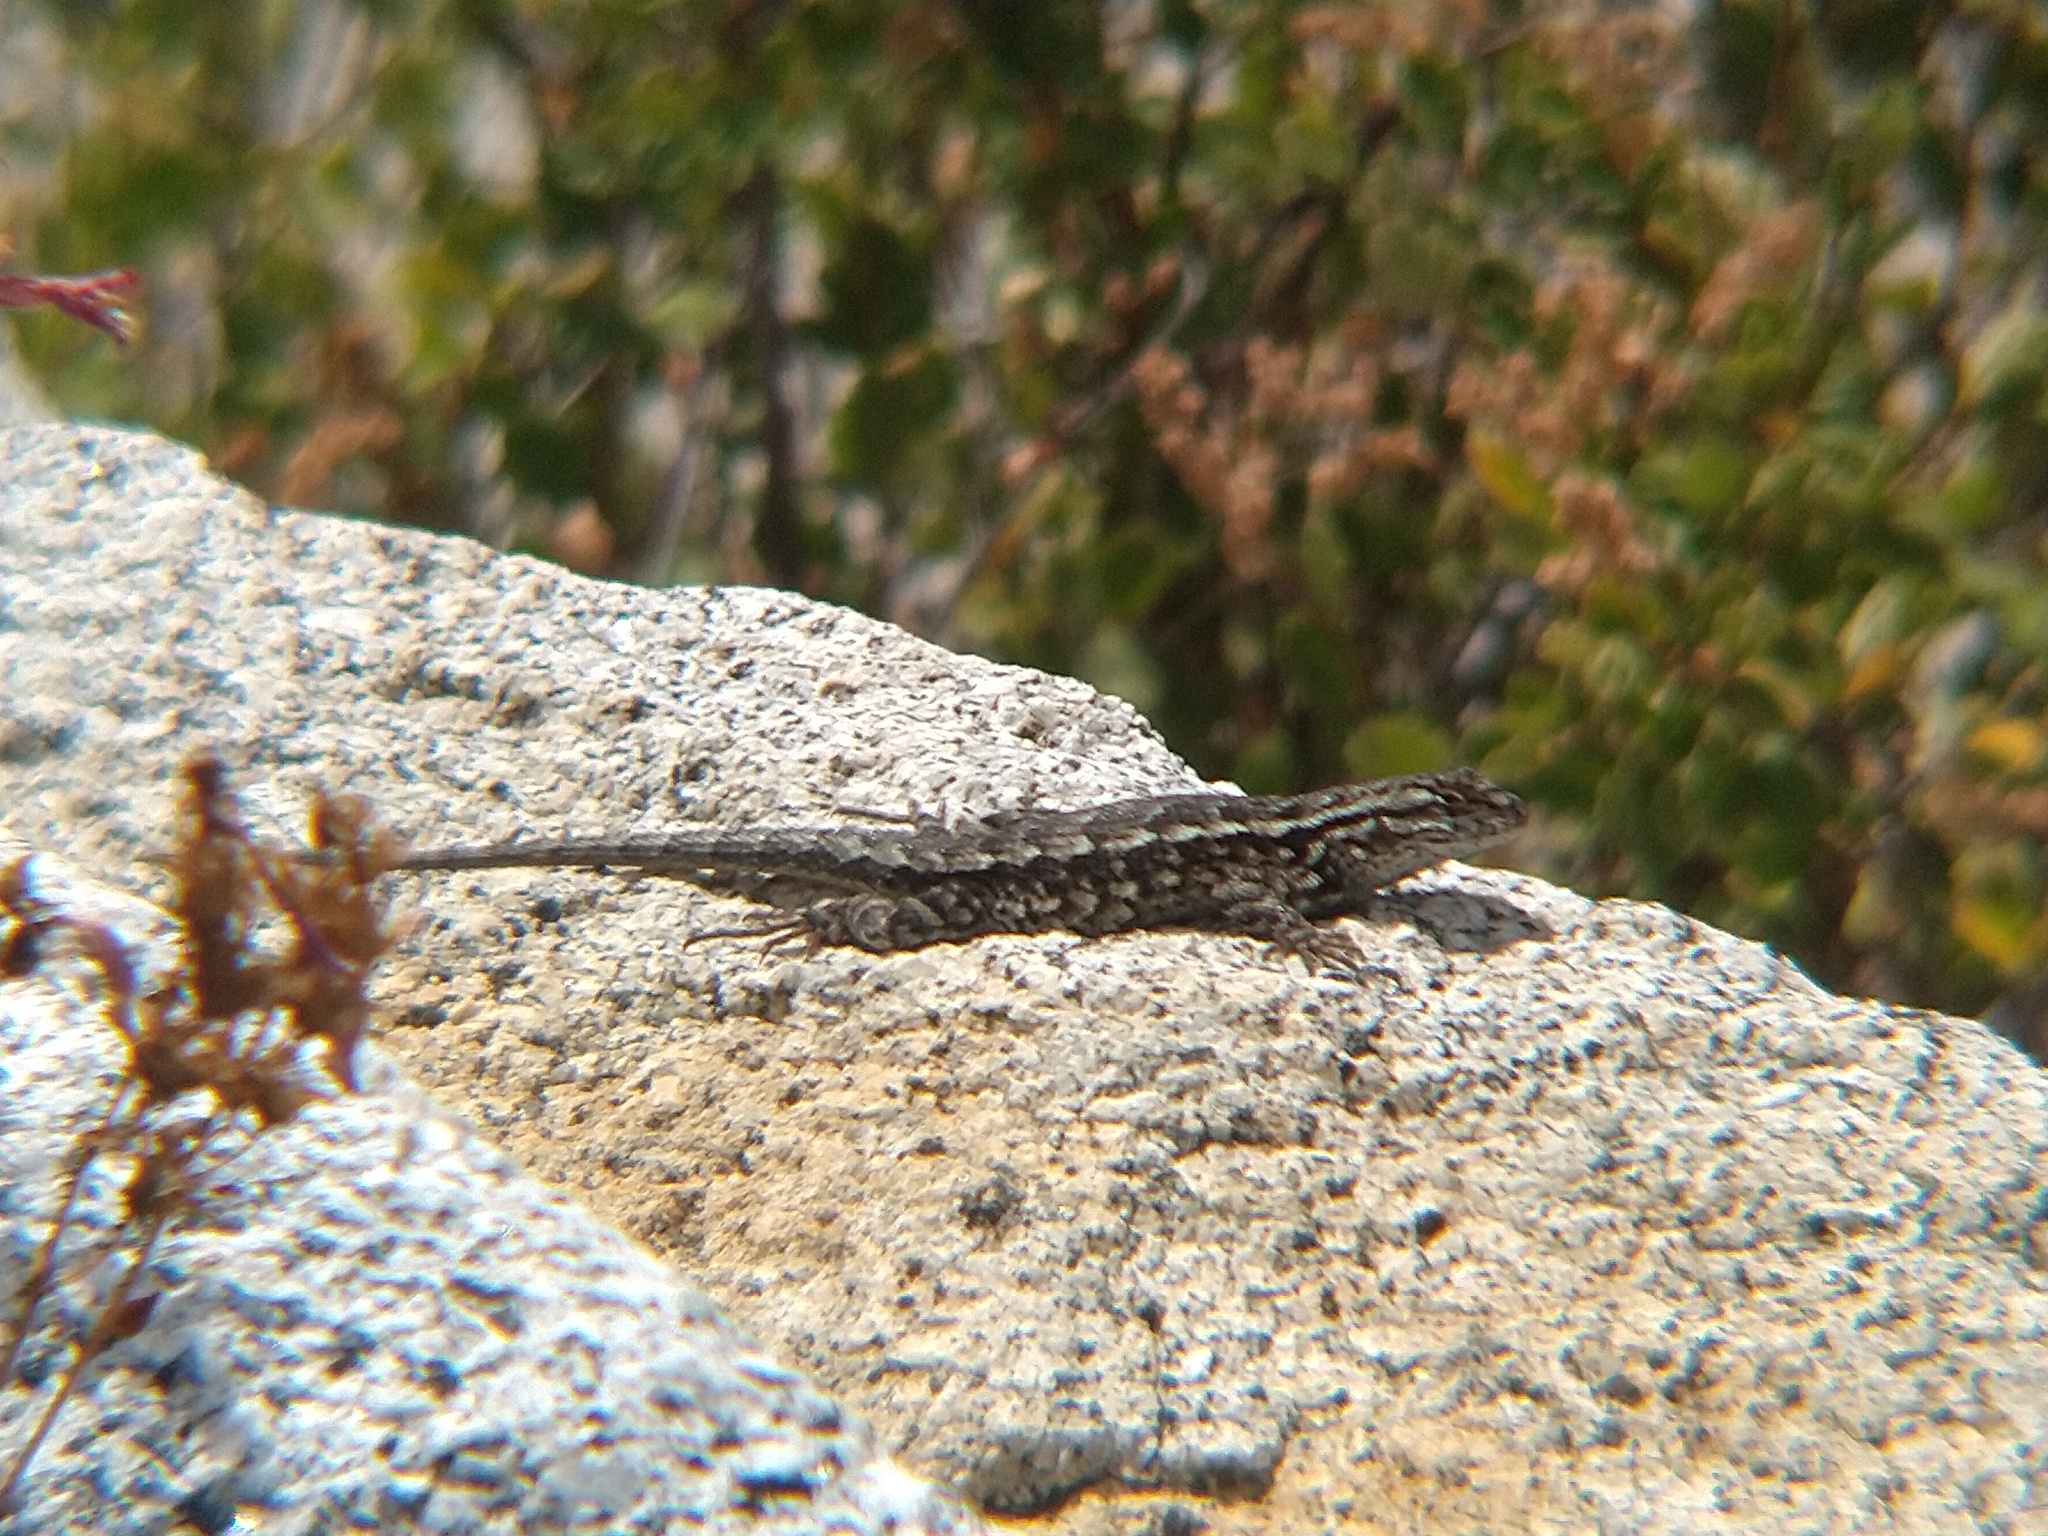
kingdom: Animalia
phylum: Chordata
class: Squamata
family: Phrynosomatidae
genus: Sceloporus
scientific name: Sceloporus occidentalis
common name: Western fence lizard
